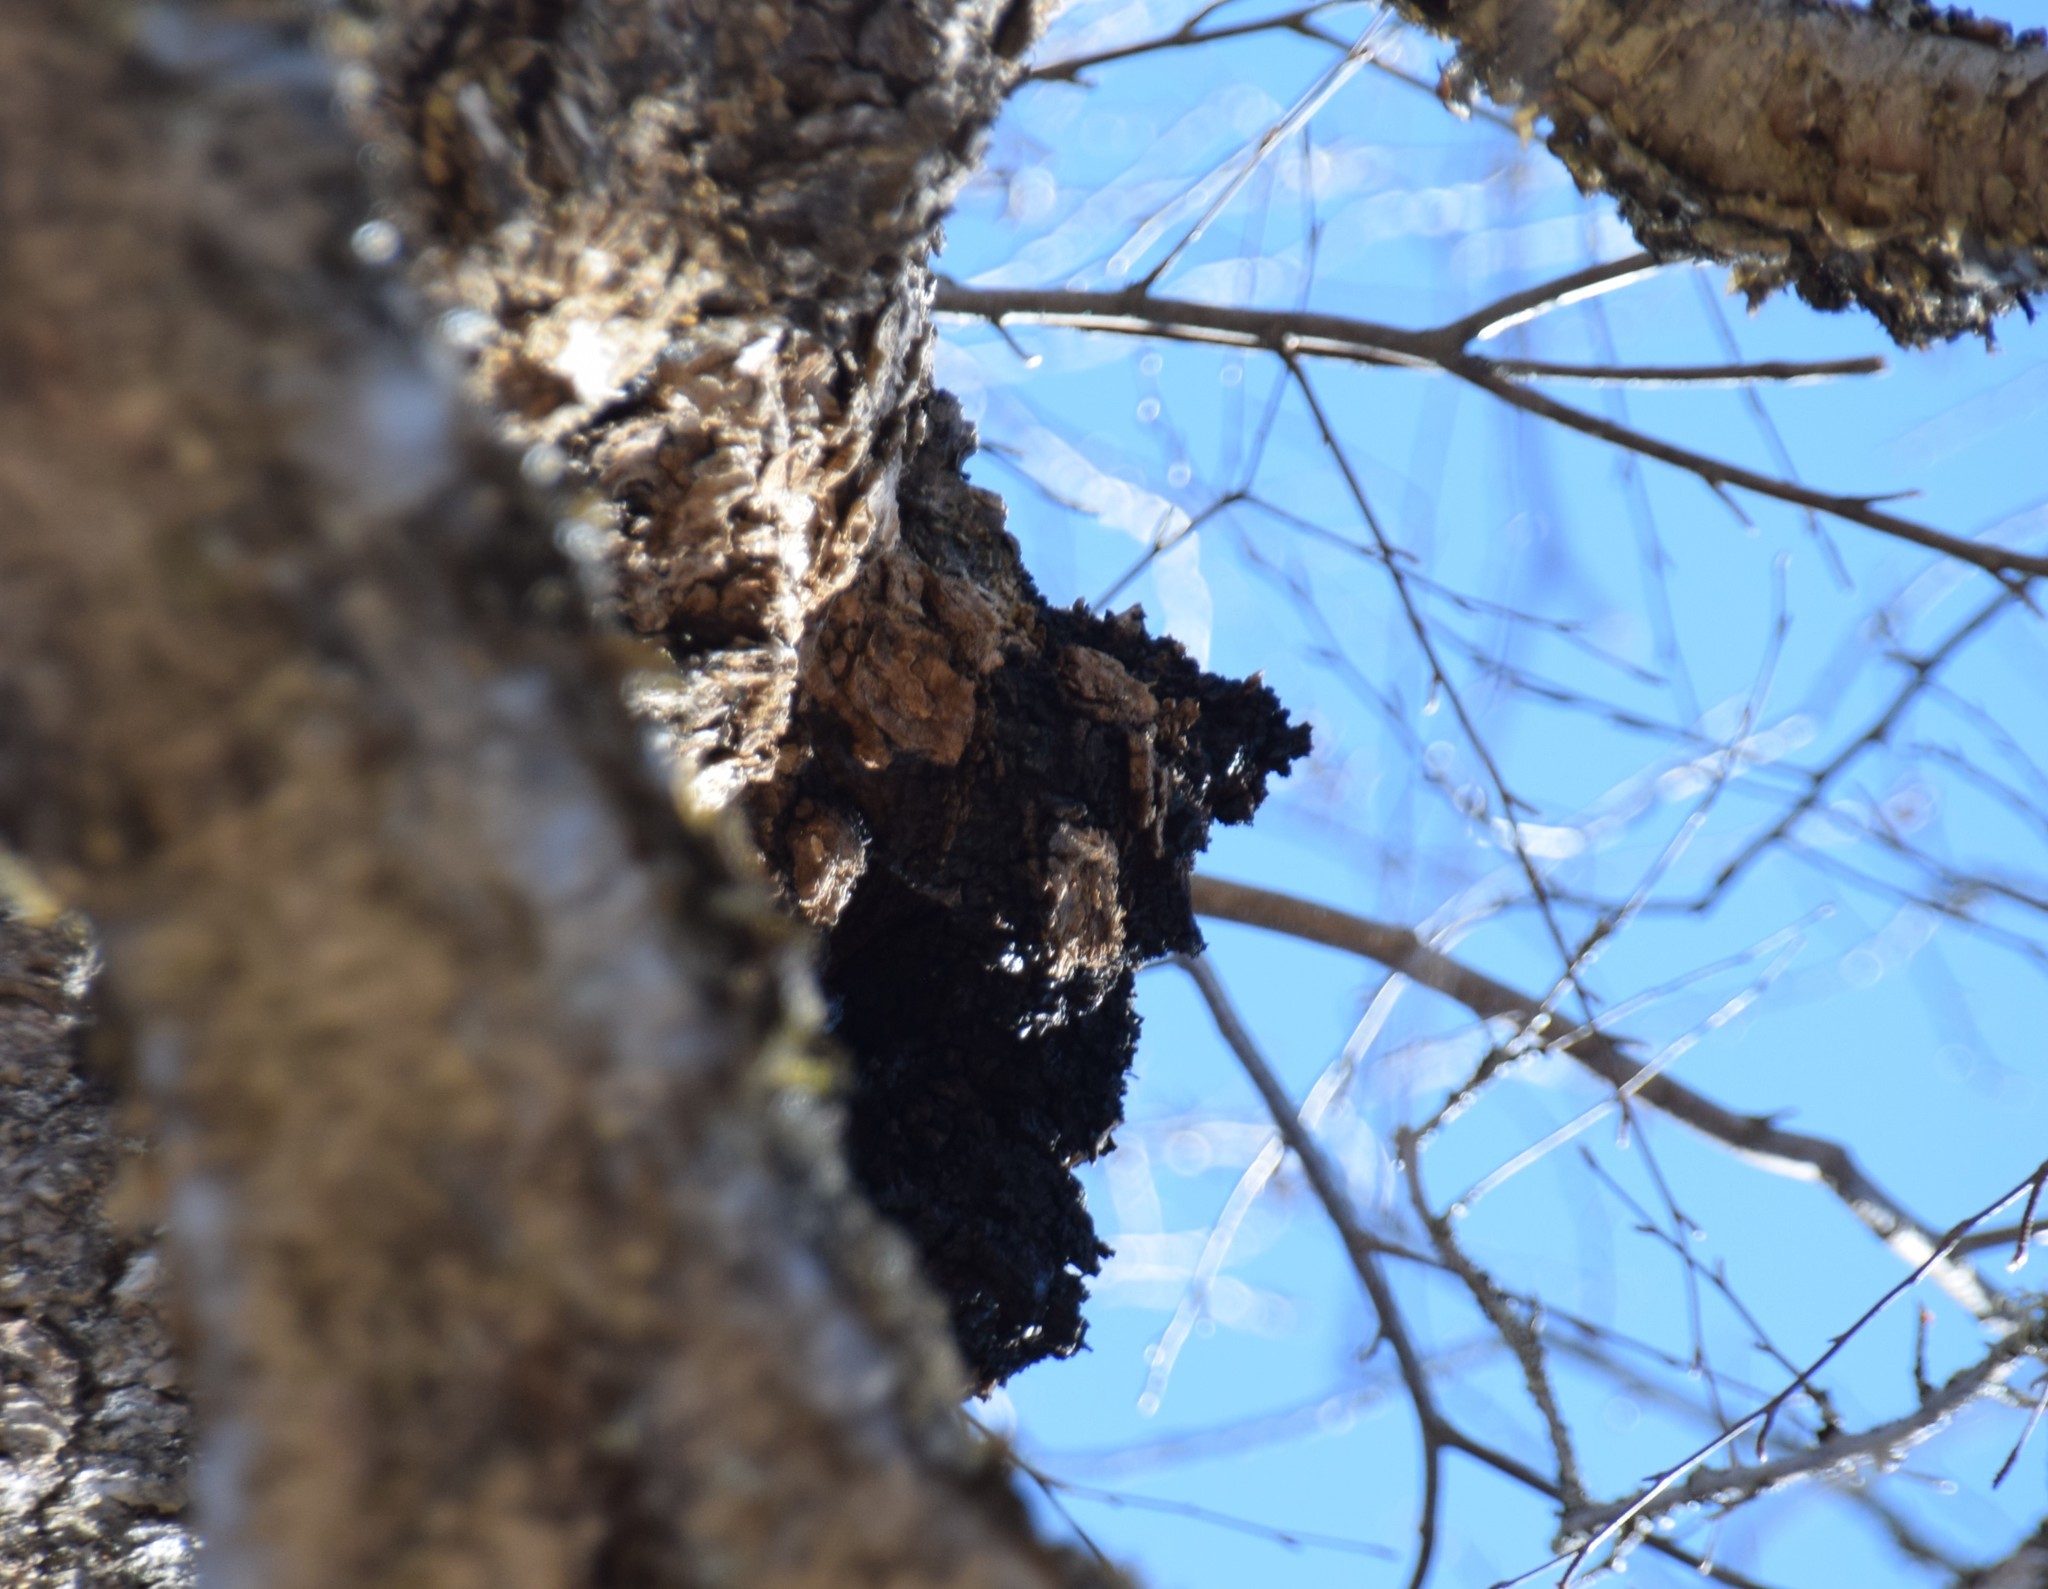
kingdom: Fungi
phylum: Basidiomycota
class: Agaricomycetes
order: Hymenochaetales
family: Hymenochaetaceae
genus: Inonotus
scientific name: Inonotus obliquus
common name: Chaga
